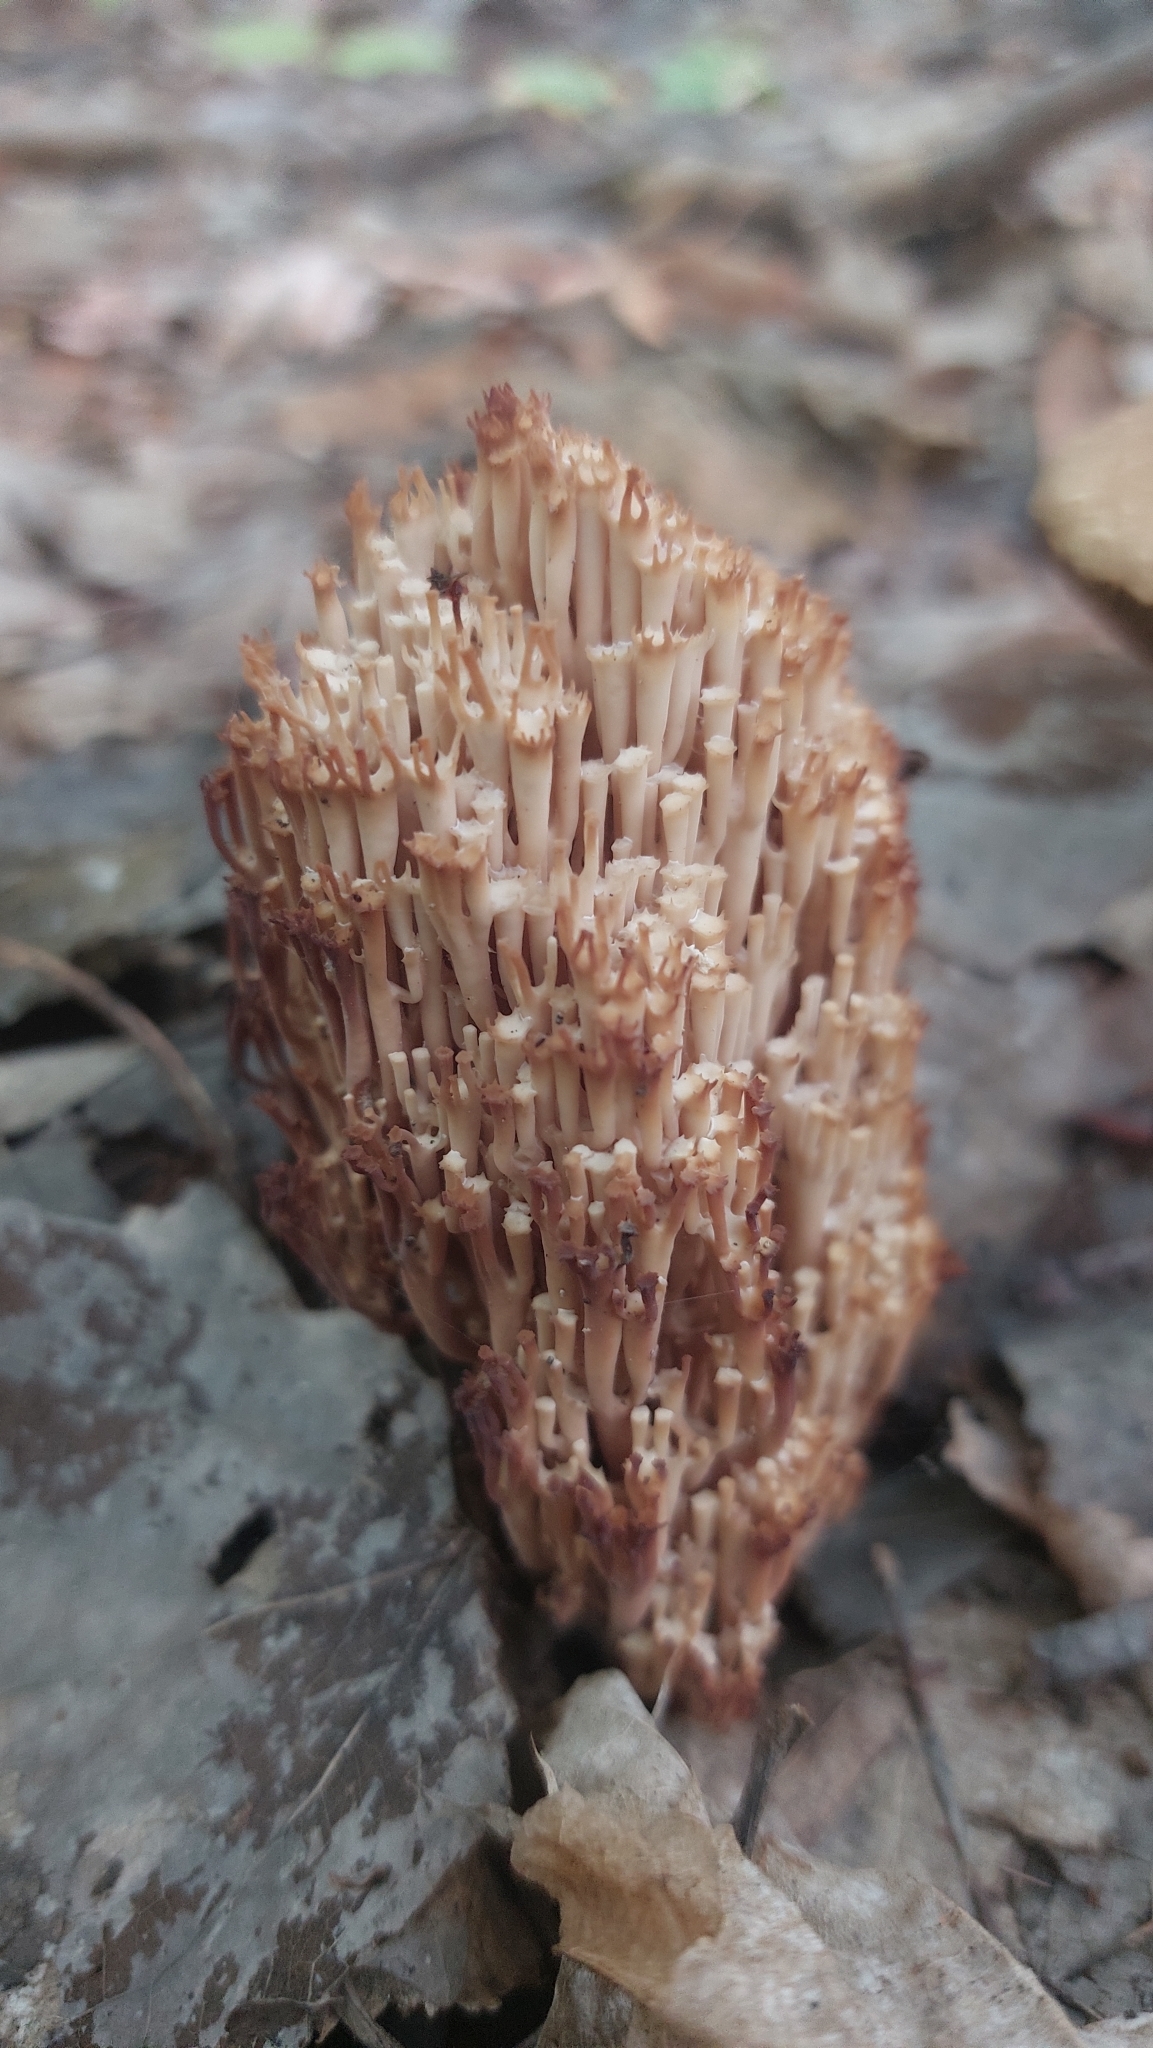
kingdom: Fungi
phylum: Basidiomycota
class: Agaricomycetes
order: Russulales
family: Auriscalpiaceae
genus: Artomyces
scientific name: Artomyces pyxidatus
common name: Crown-tipped coral fungus
